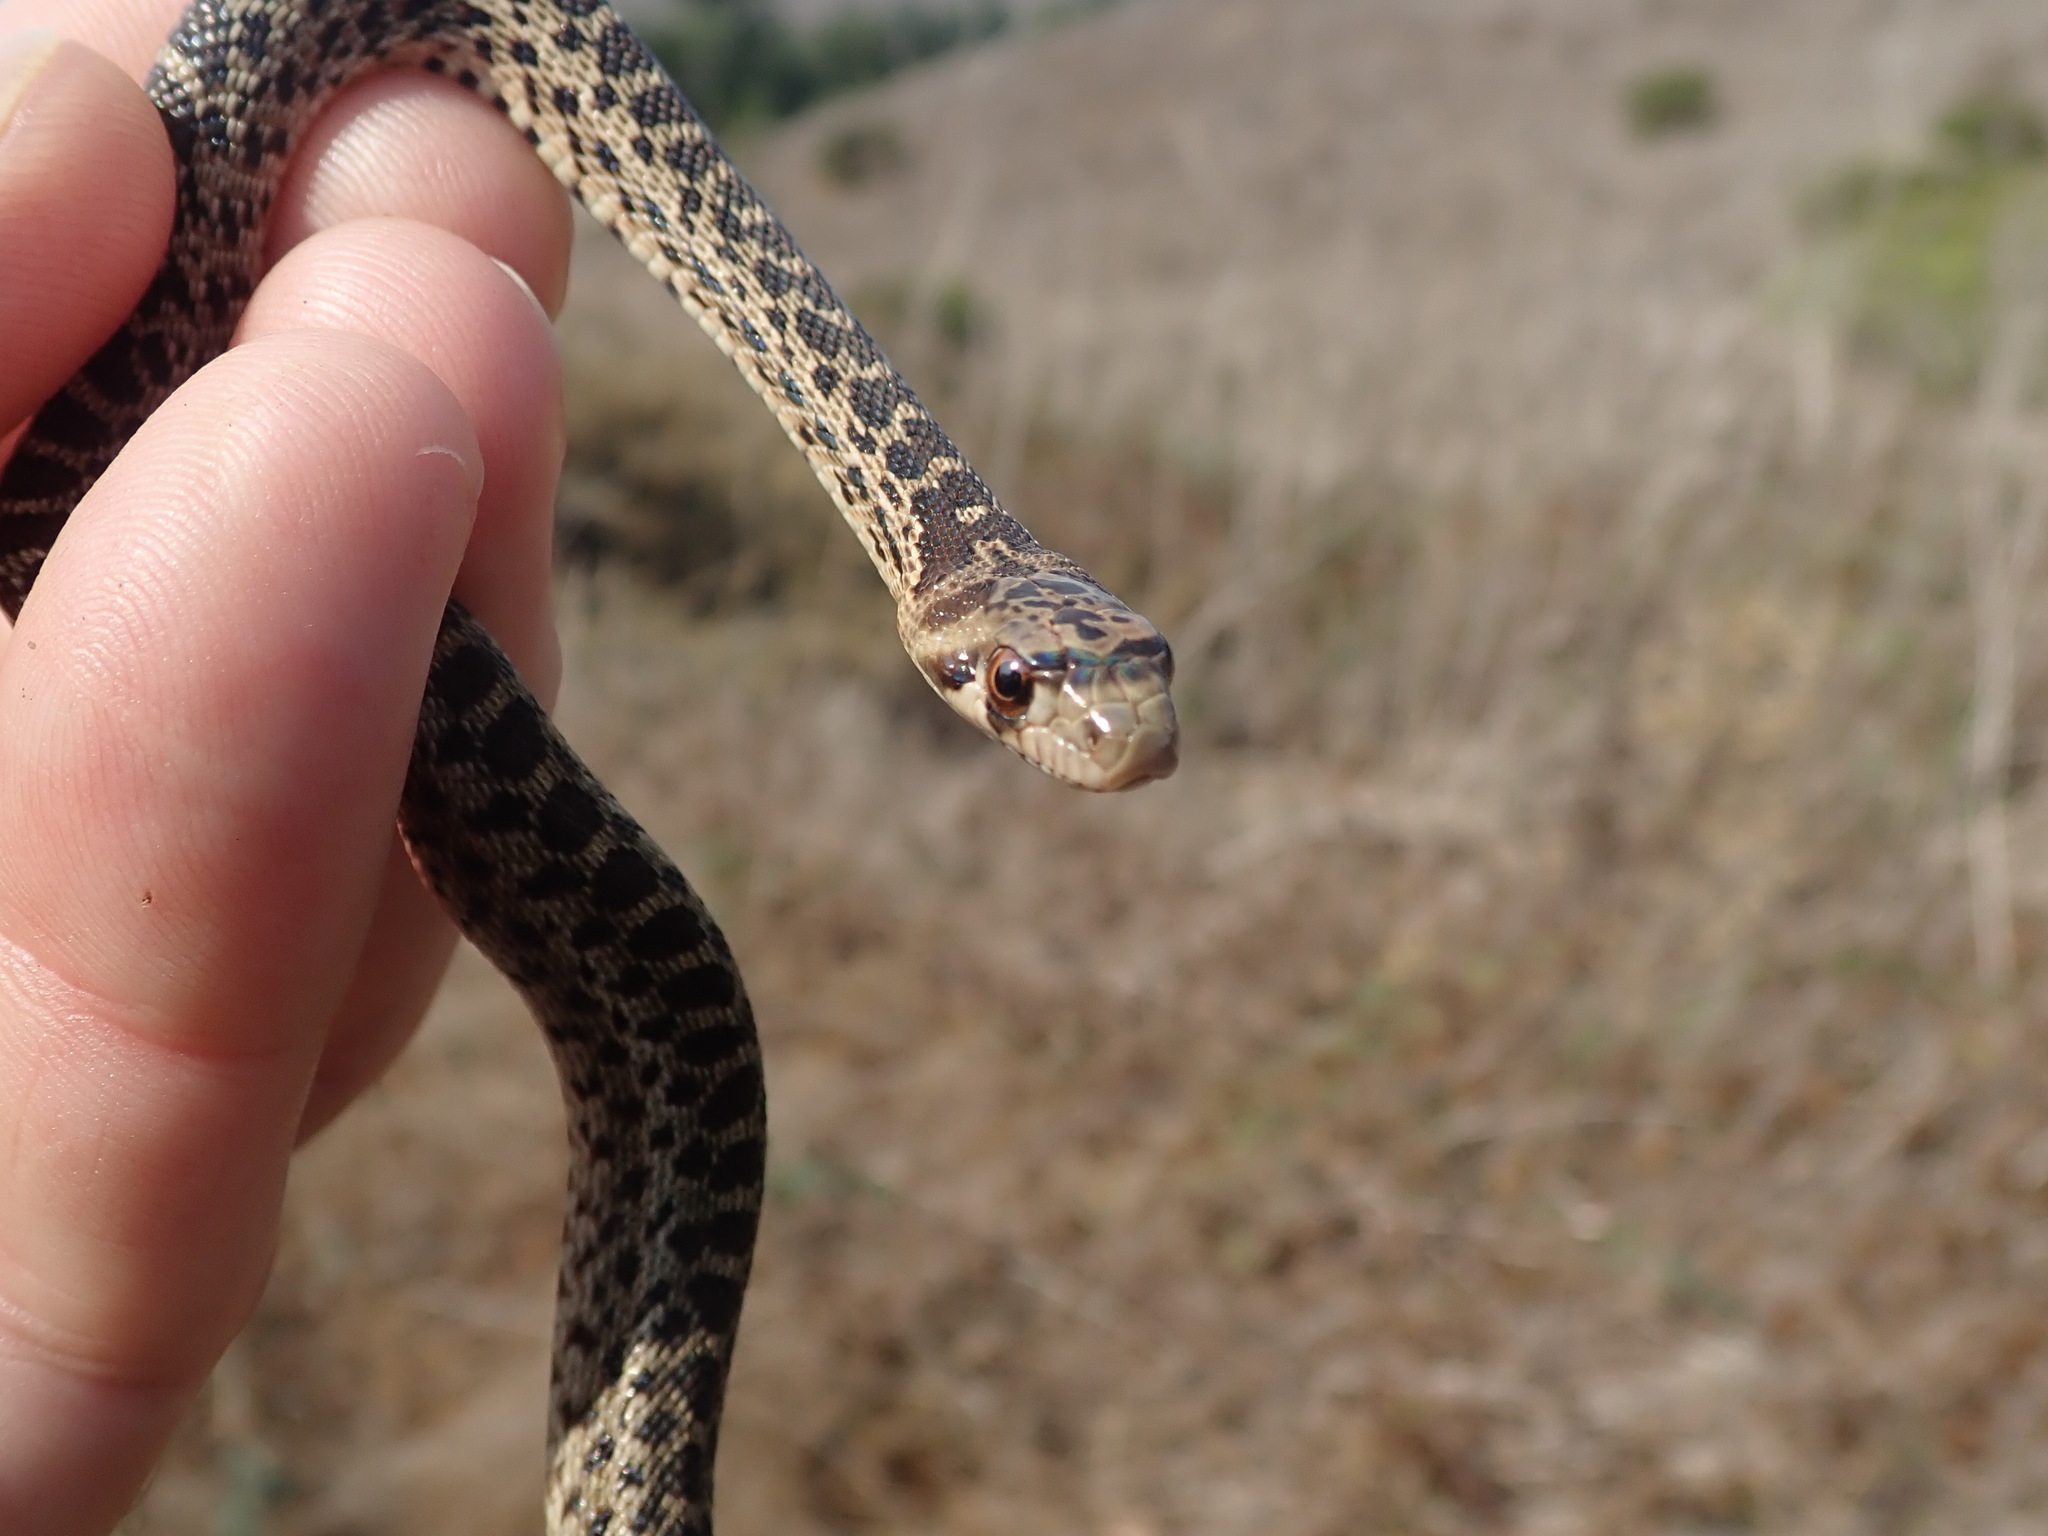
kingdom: Animalia
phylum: Chordata
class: Squamata
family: Colubridae
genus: Pituophis
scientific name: Pituophis catenifer
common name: Gopher snake
